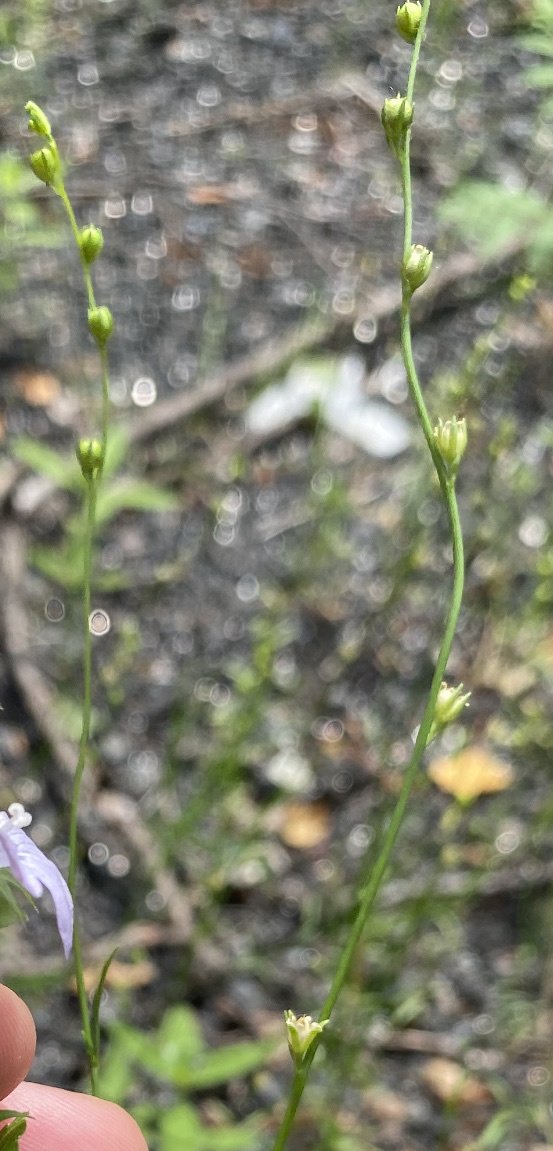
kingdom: Plantae
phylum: Tracheophyta
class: Magnoliopsida
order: Lamiales
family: Plantaginaceae
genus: Nuttallanthus
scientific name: Nuttallanthus canadensis
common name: Blue toadflax
